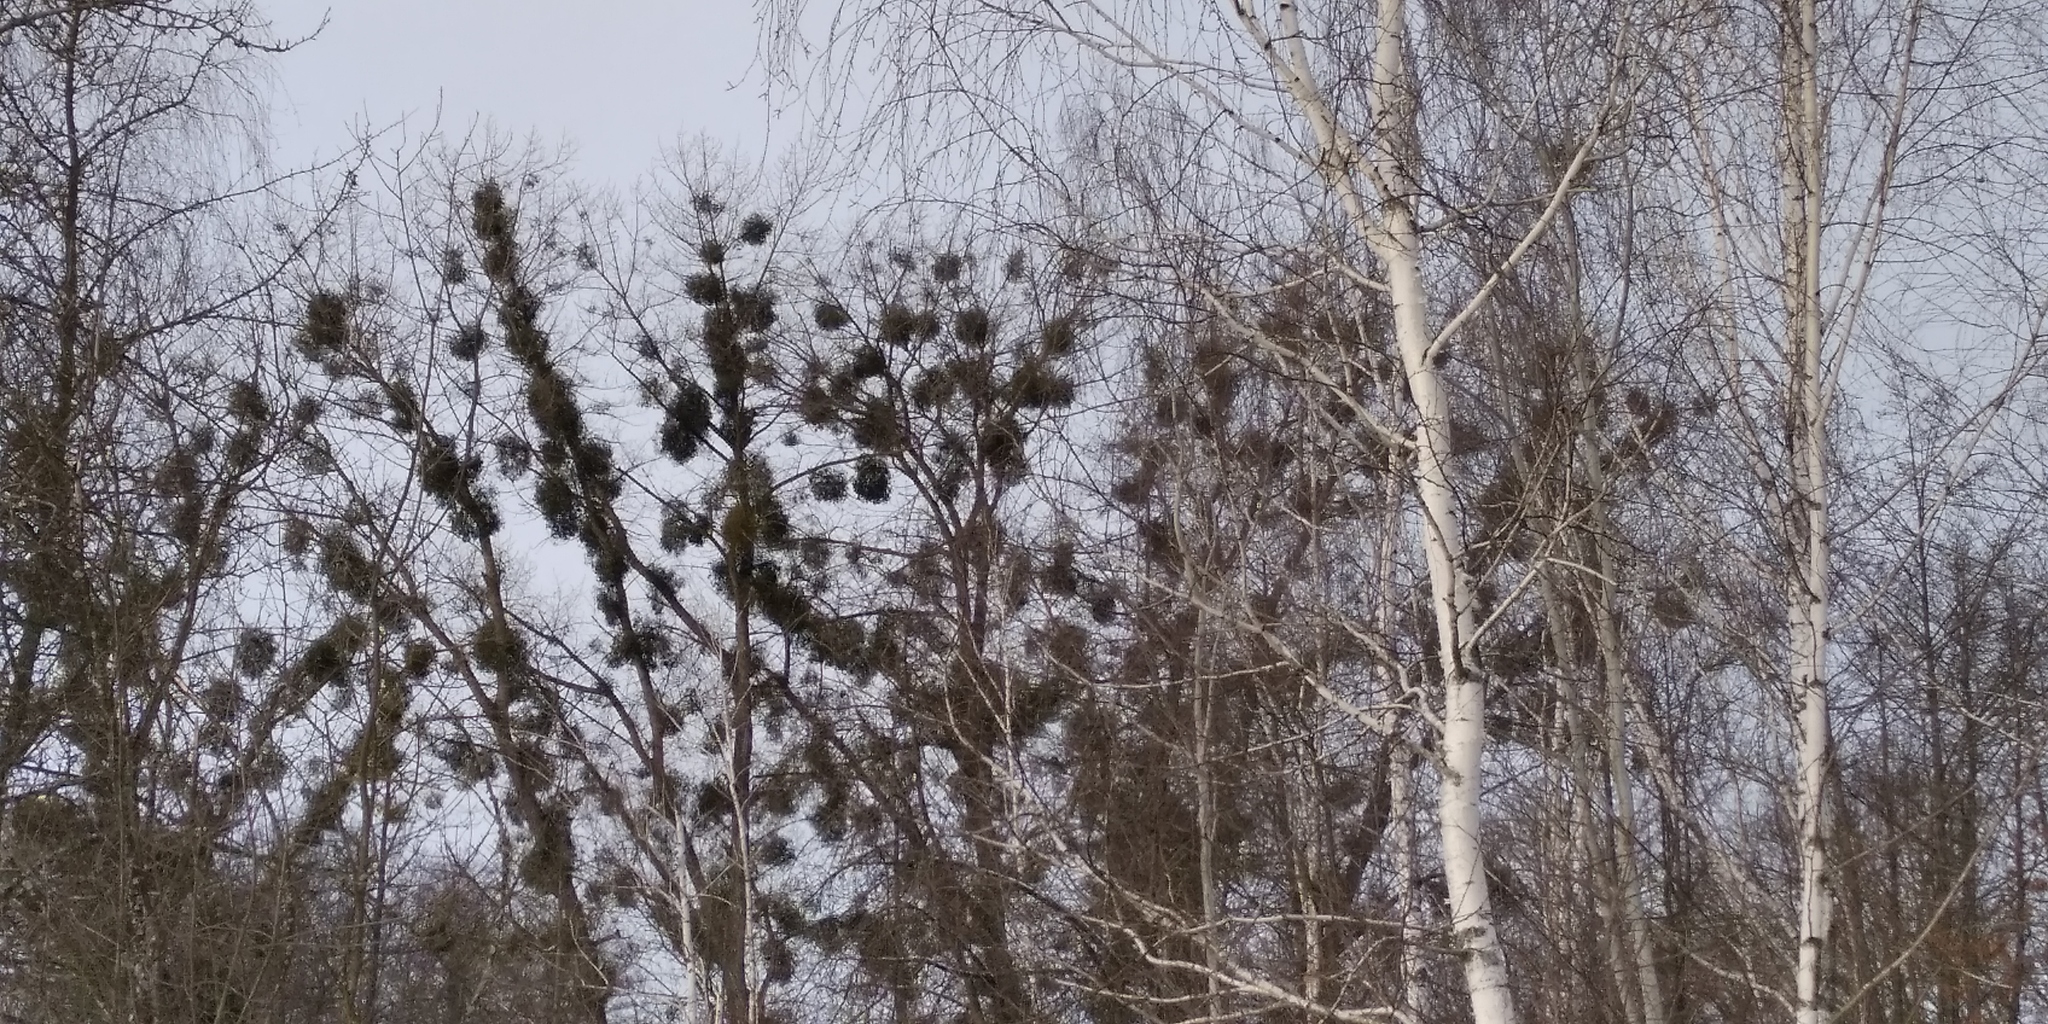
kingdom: Plantae
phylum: Tracheophyta
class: Magnoliopsida
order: Santalales
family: Viscaceae
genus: Viscum
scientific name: Viscum album
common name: Mistletoe
